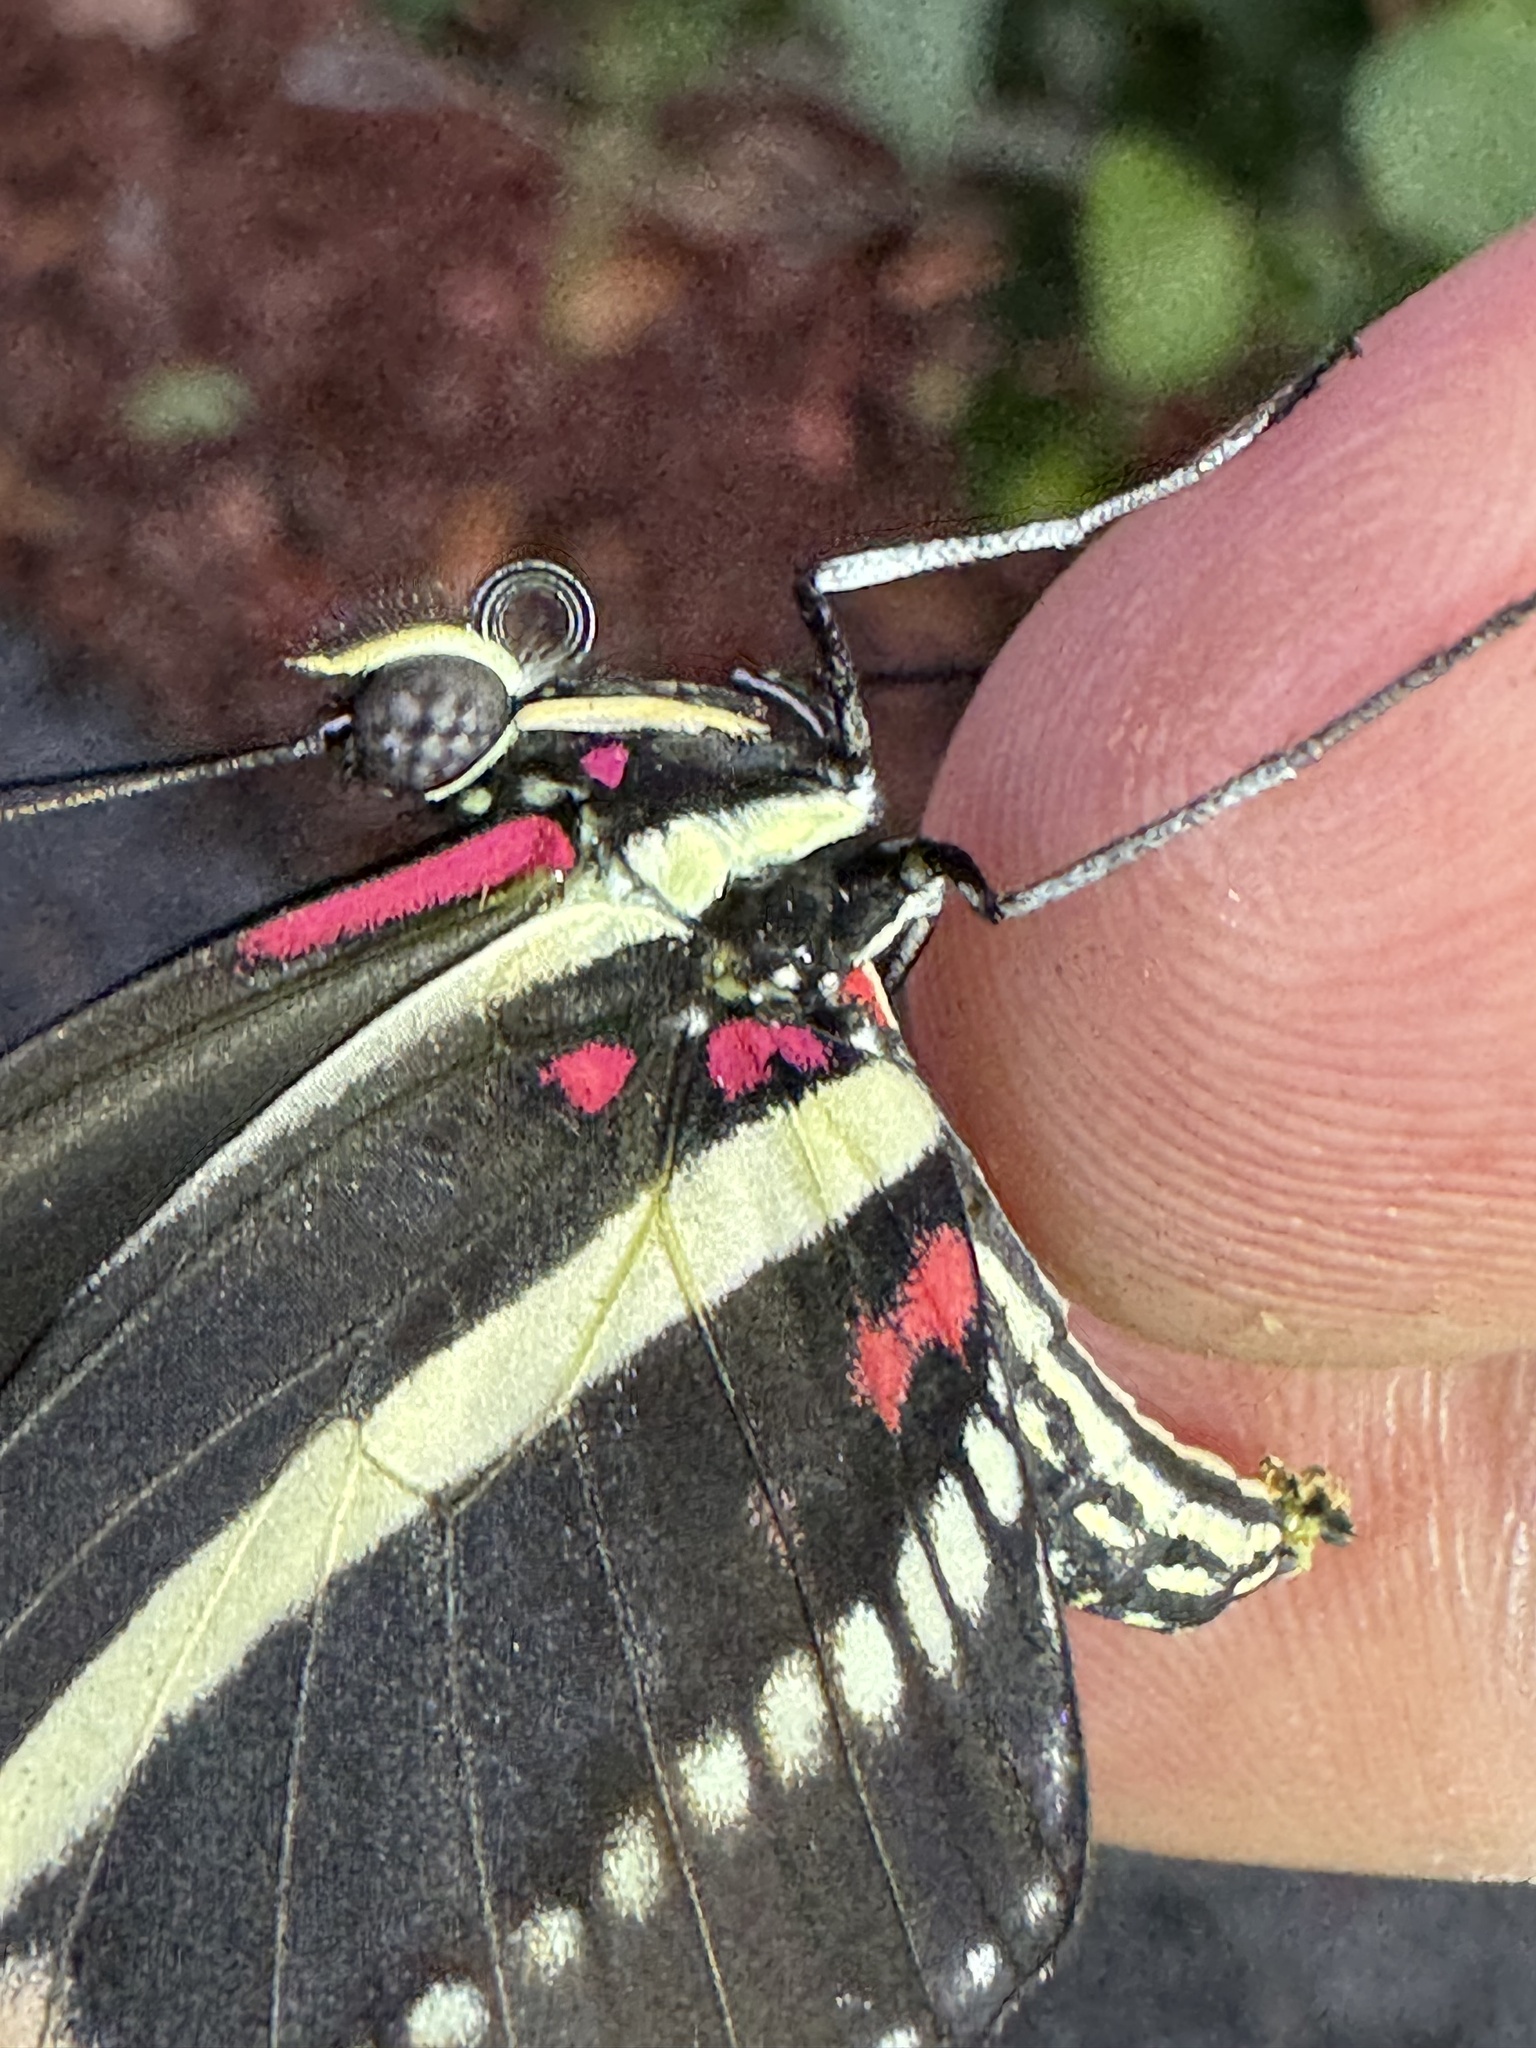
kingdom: Animalia
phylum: Arthropoda
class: Insecta
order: Lepidoptera
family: Nymphalidae
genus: Heliconius
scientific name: Heliconius charithonia
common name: Zebra long wing
